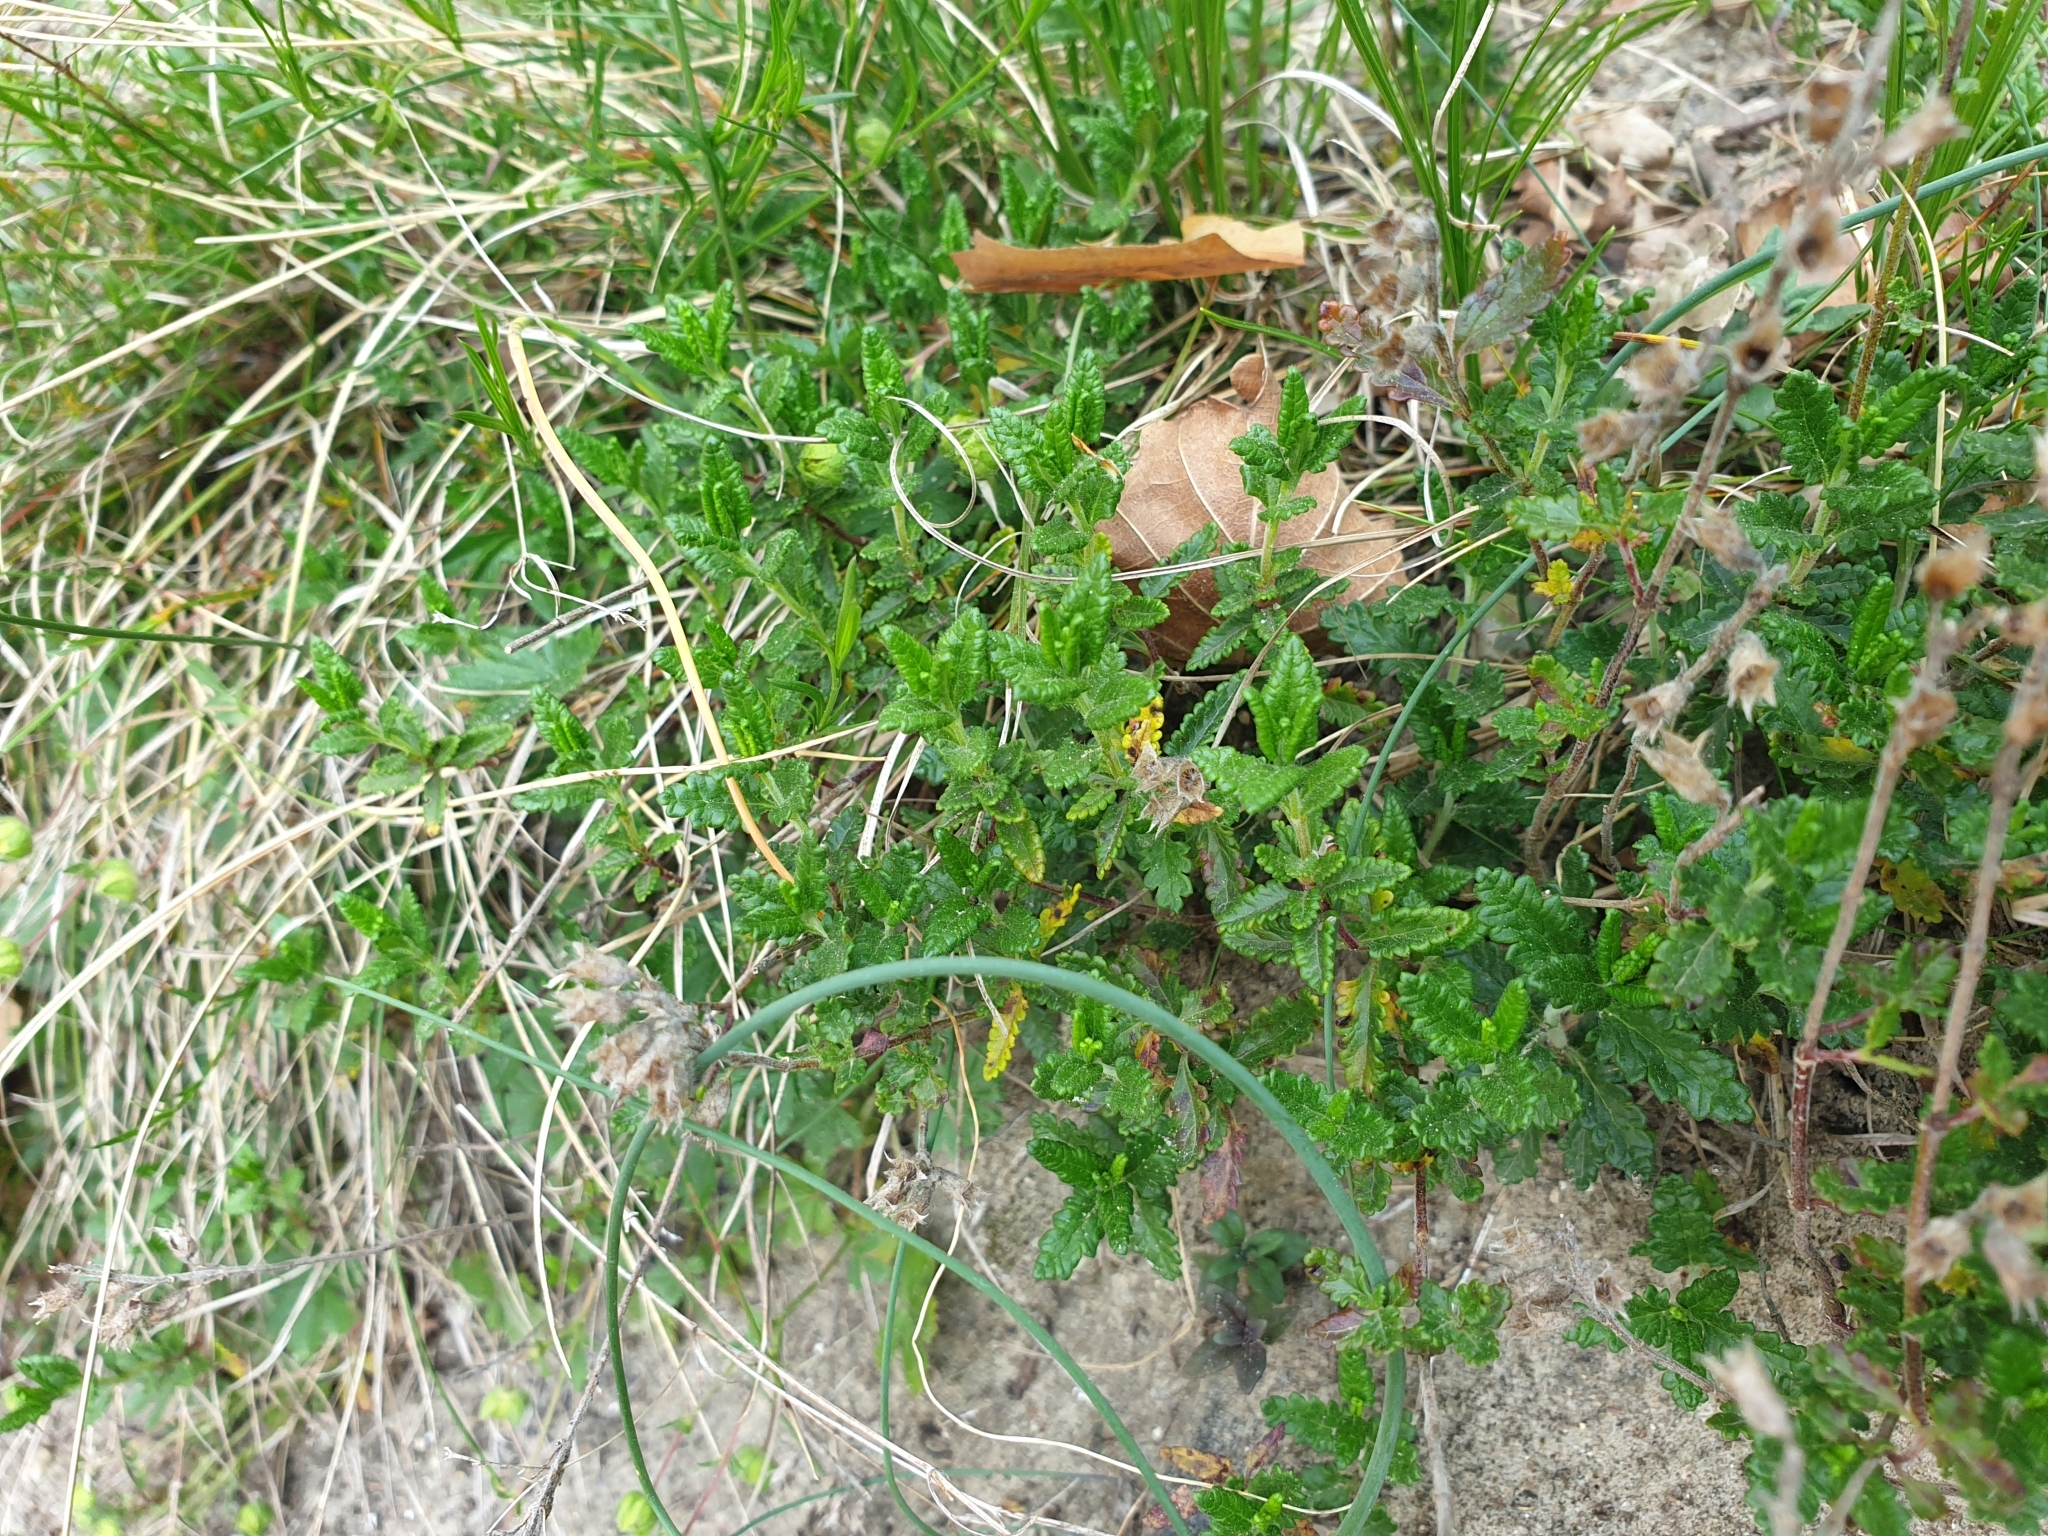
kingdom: Plantae
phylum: Tracheophyta
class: Magnoliopsida
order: Lamiales
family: Lamiaceae
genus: Teucrium
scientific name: Teucrium chamaedrys
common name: Wall germander
